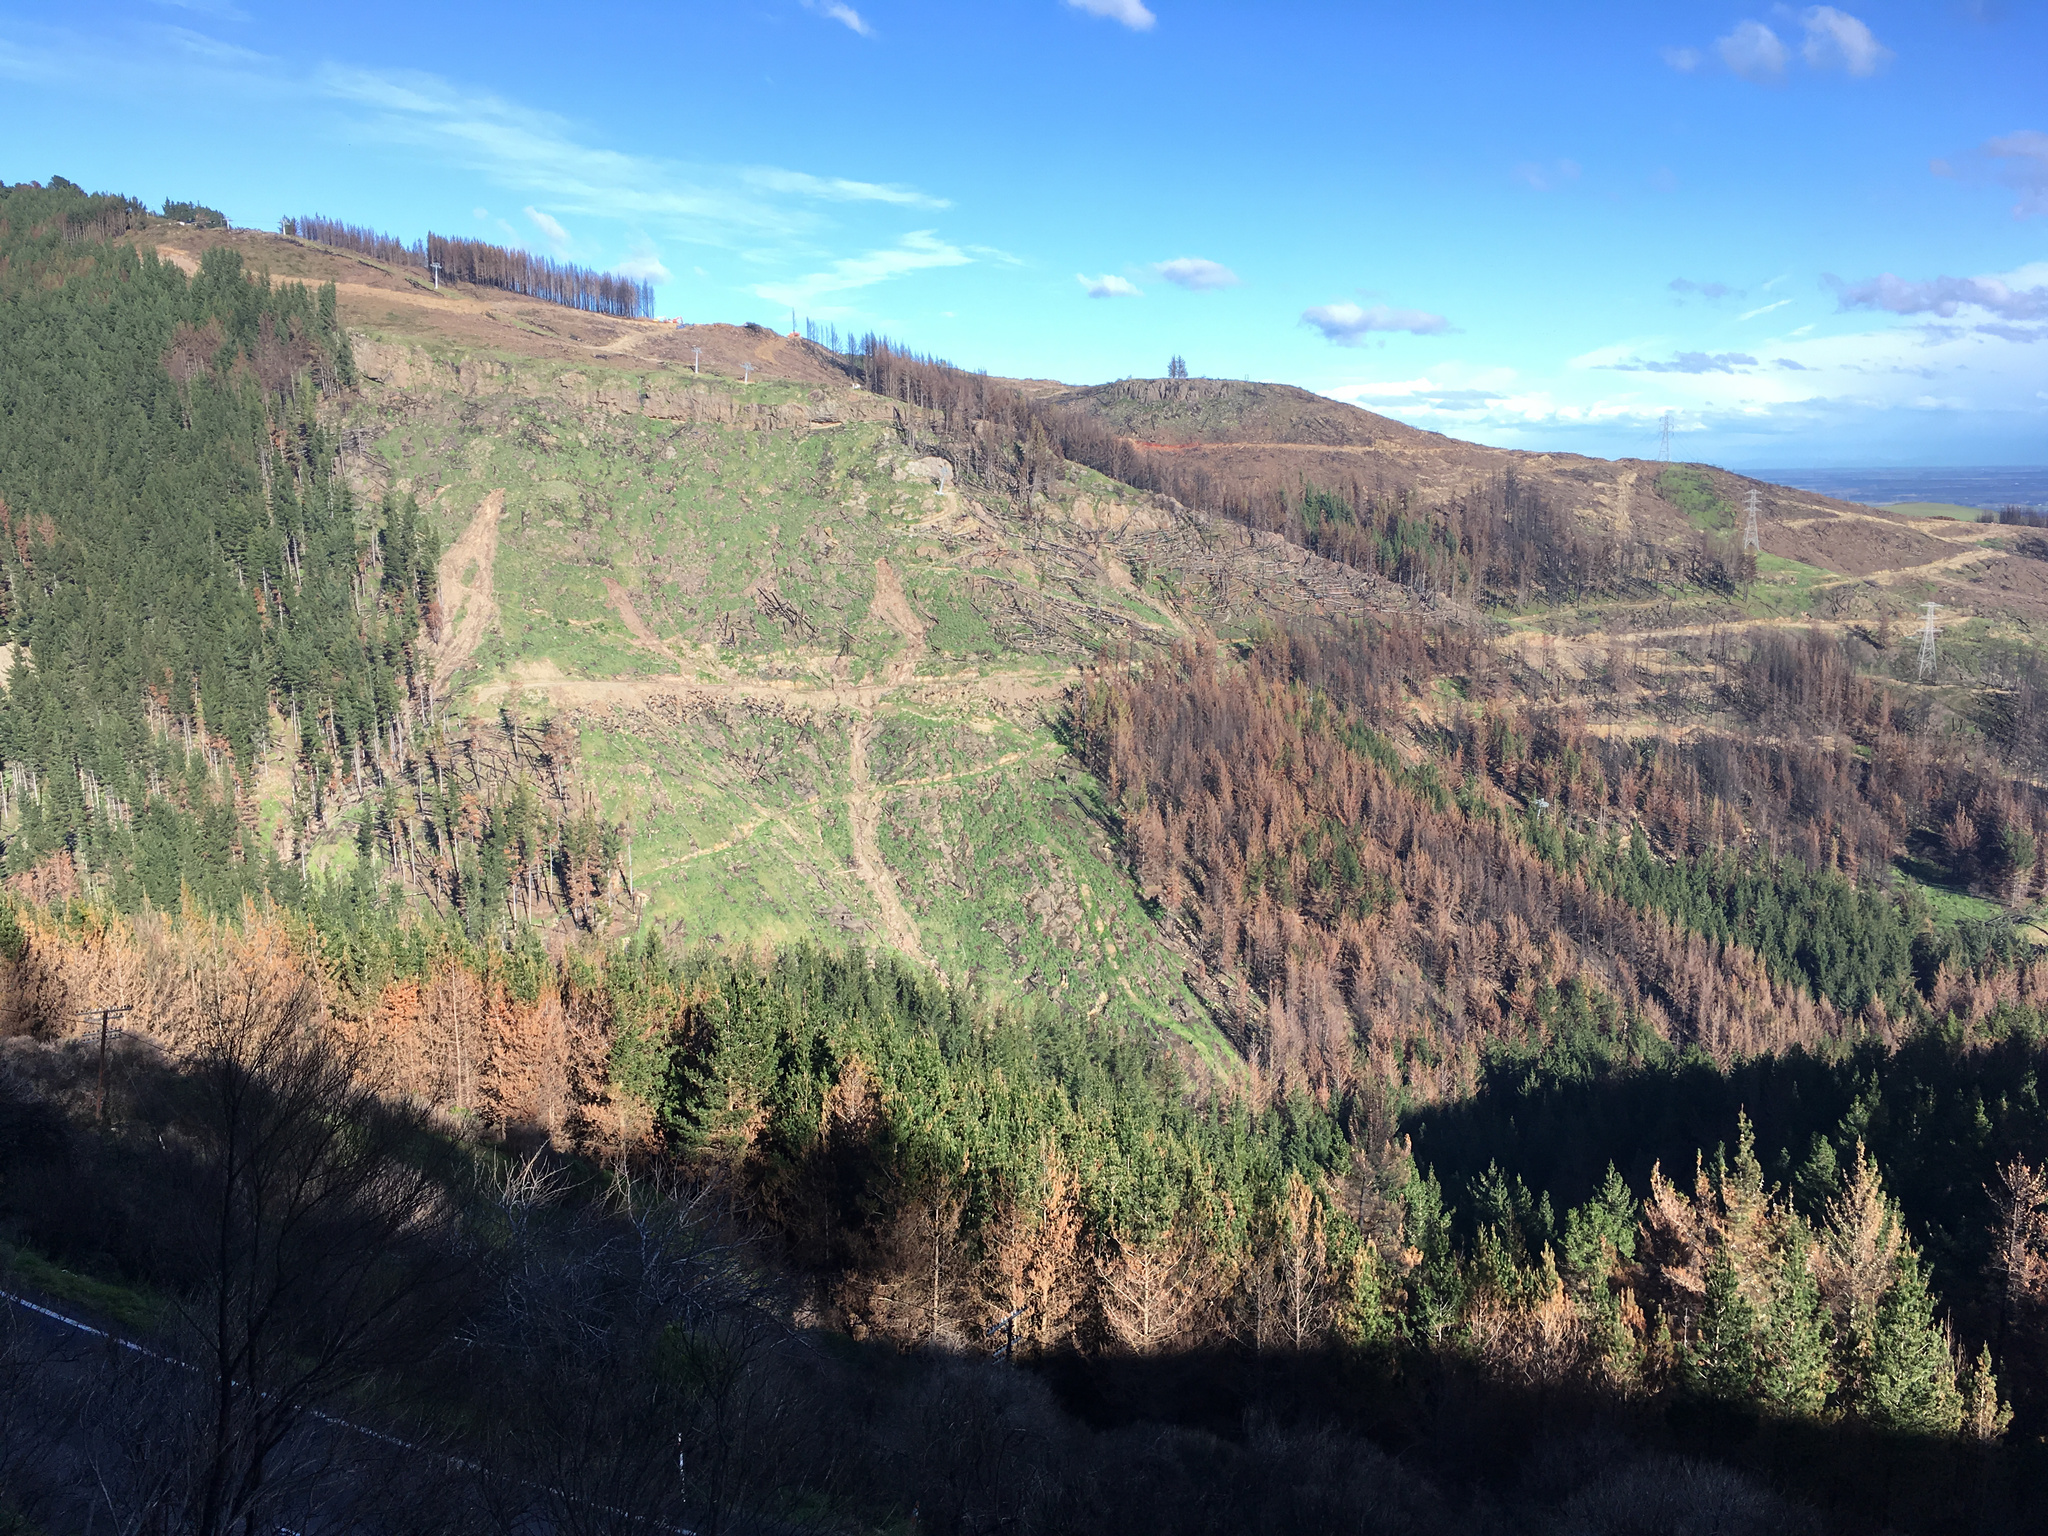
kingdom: Plantae
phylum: Tracheophyta
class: Pinopsida
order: Pinales
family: Pinaceae
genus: Pinus
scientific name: Pinus radiata
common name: Monterey pine
